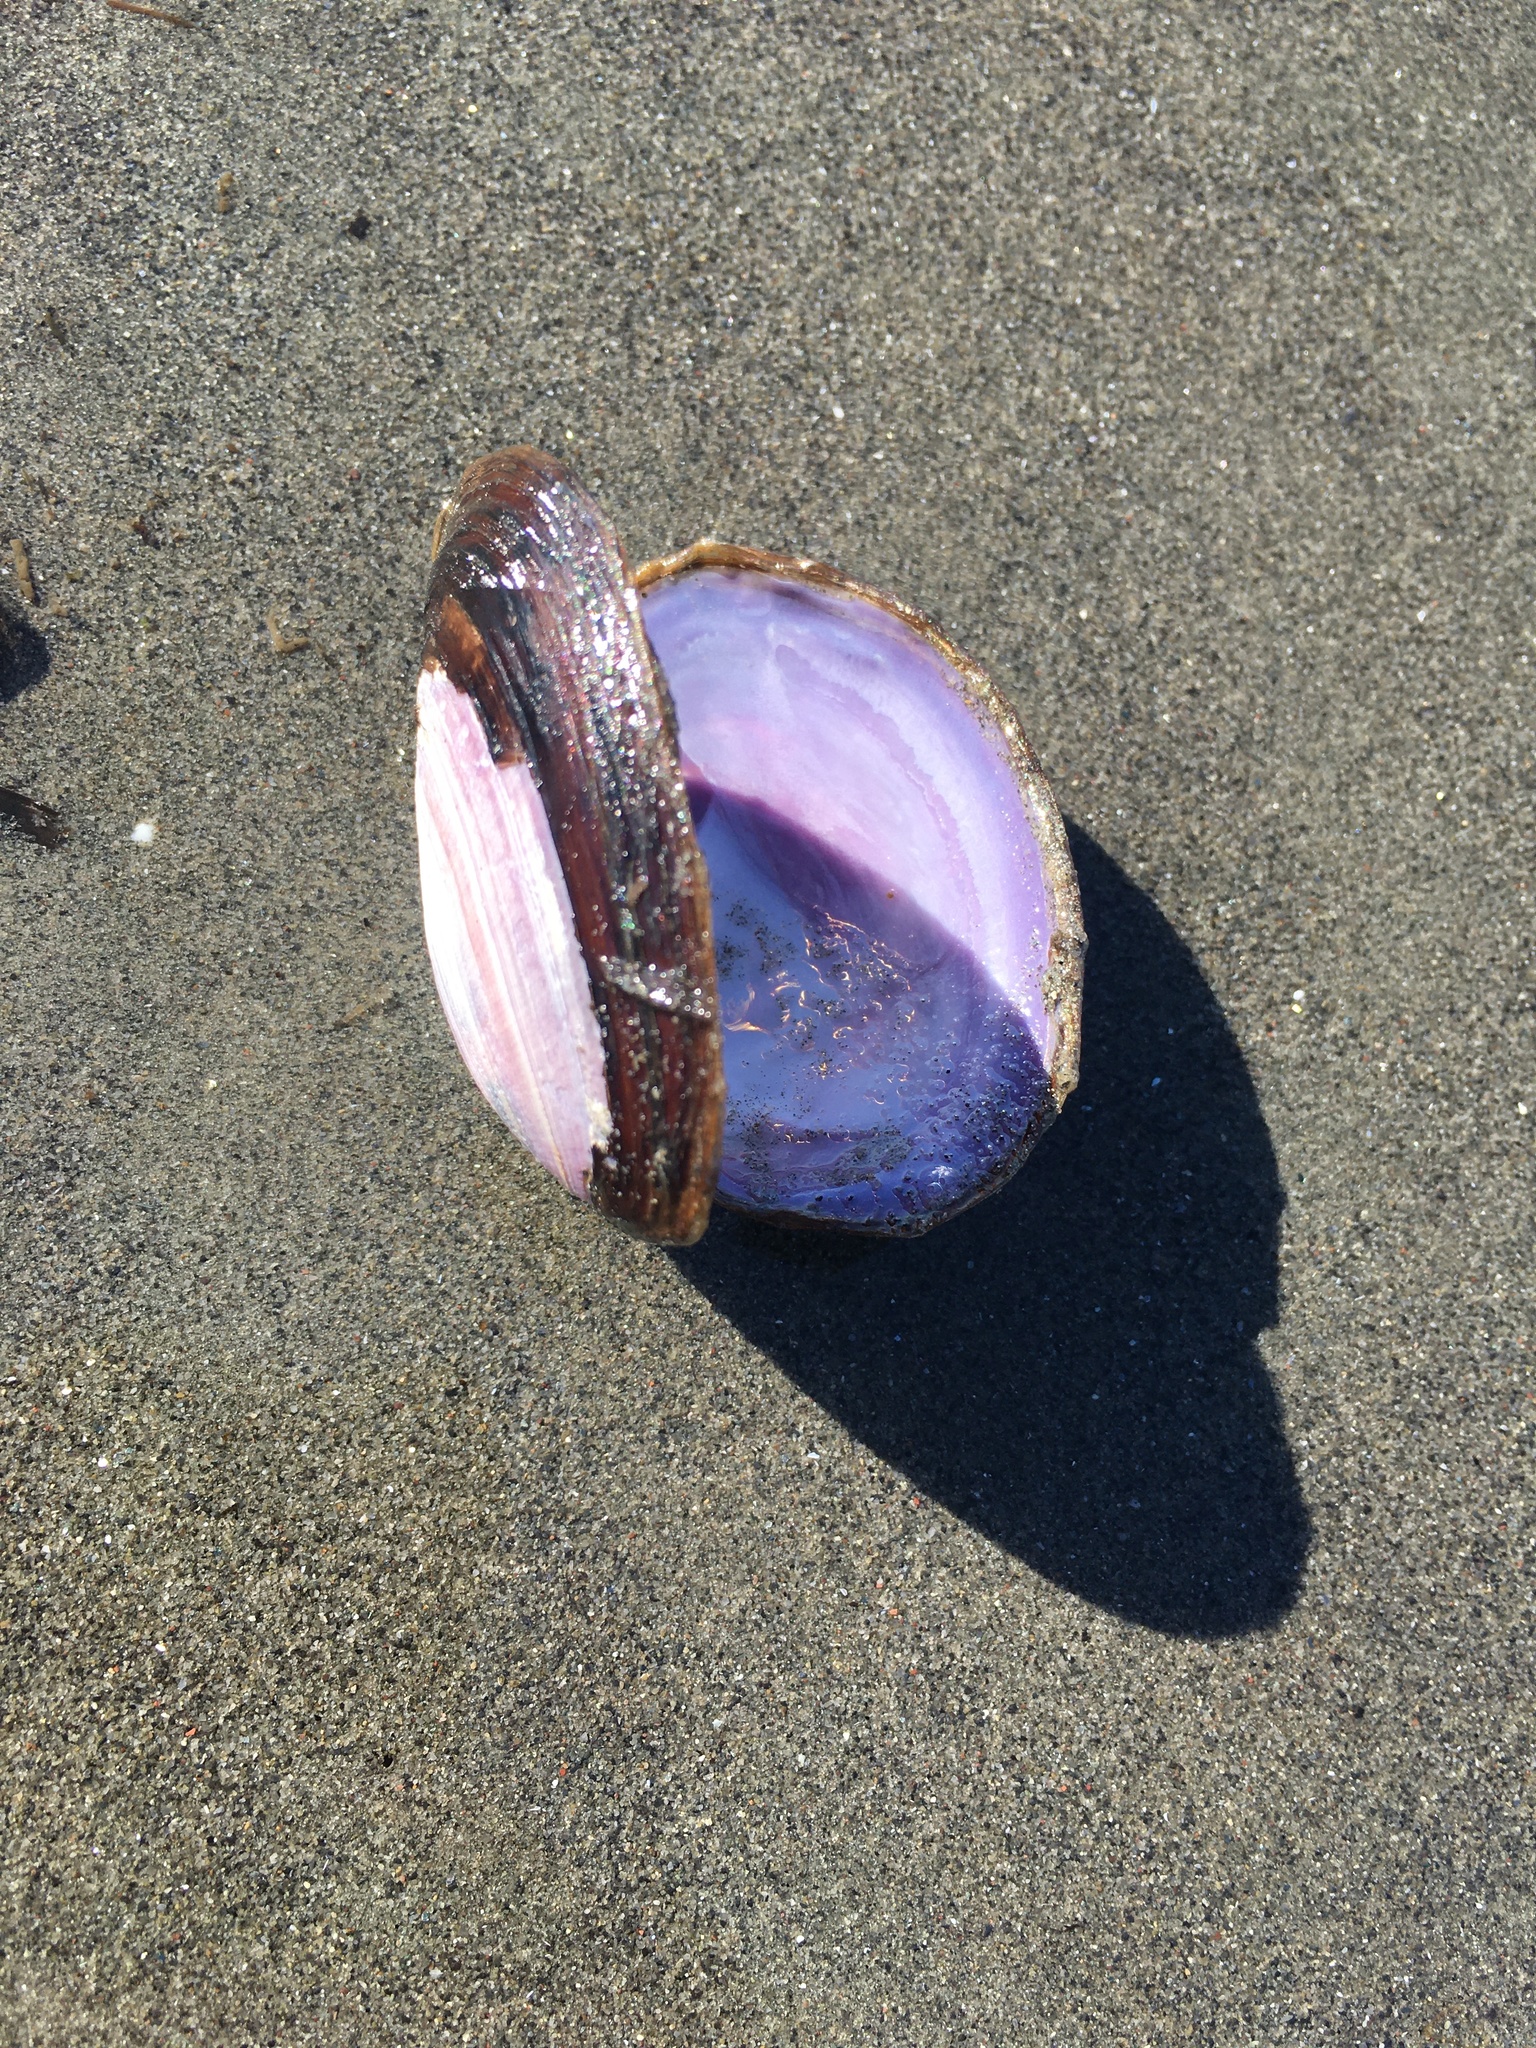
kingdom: Animalia
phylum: Mollusca
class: Bivalvia
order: Cardiida
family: Psammobiidae
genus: Nuttallia
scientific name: Nuttallia obscurata
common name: Purple mahogany-clam
